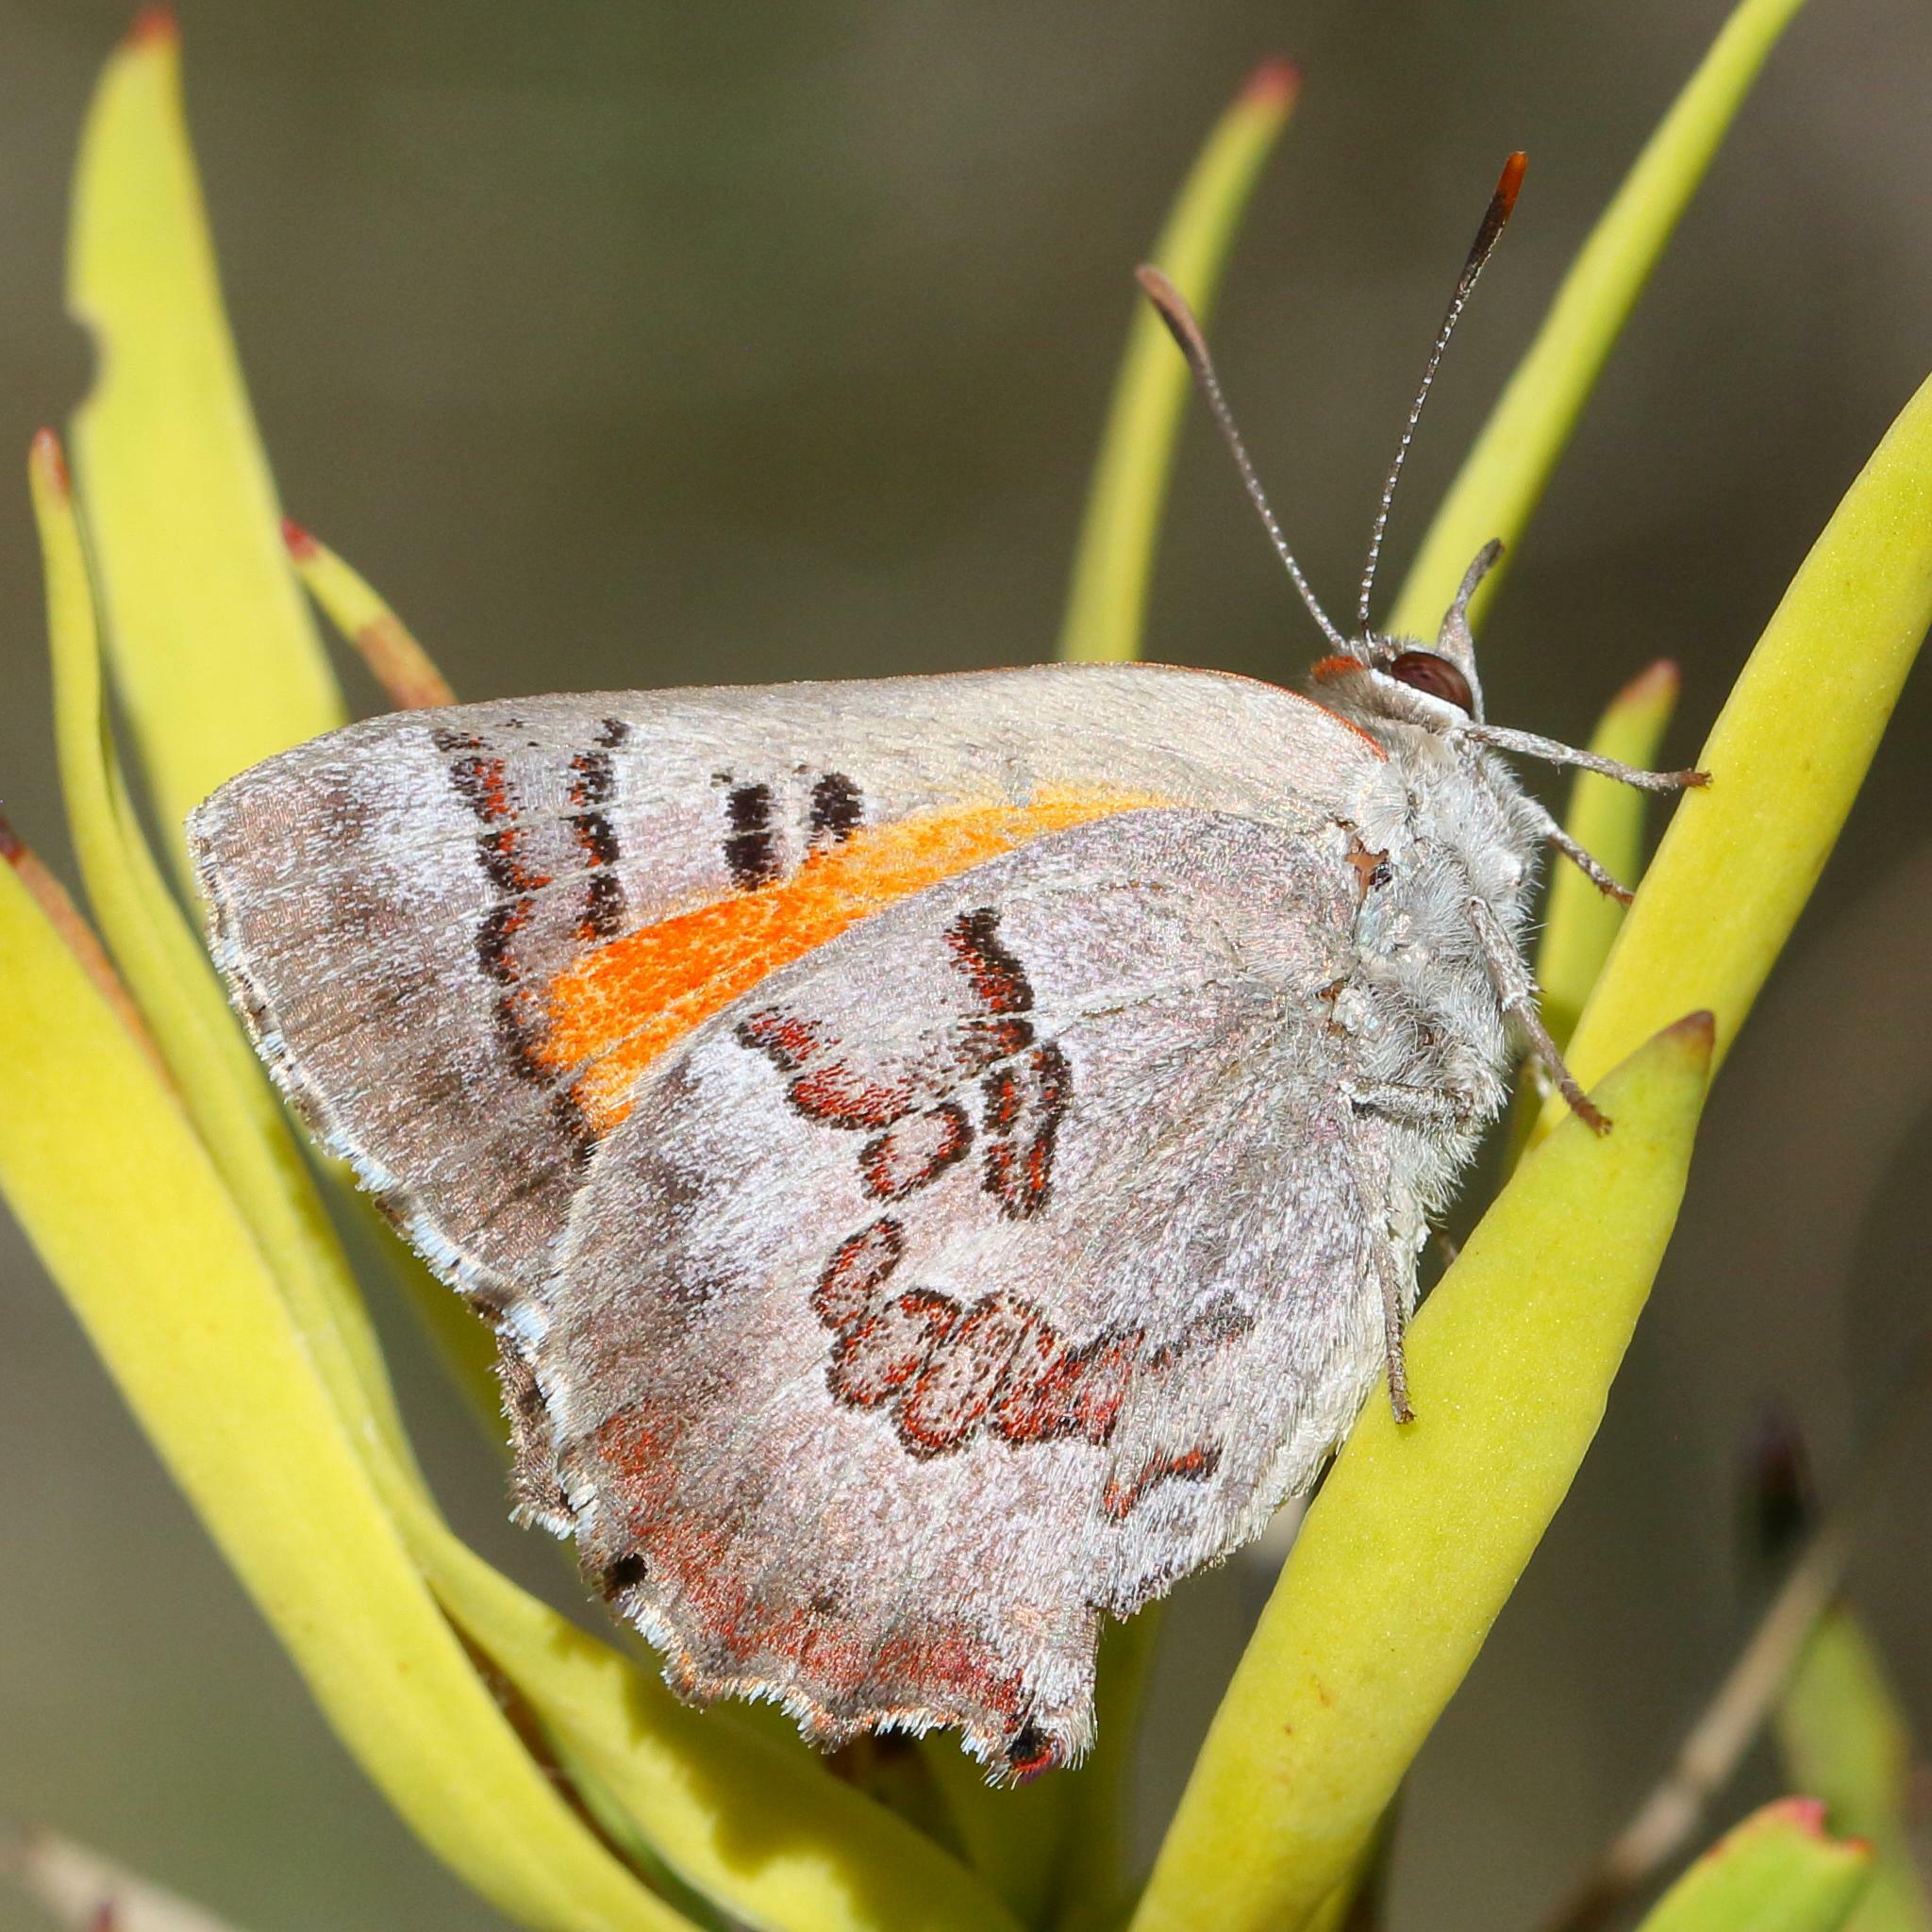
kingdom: Animalia
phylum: Arthropoda
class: Insecta
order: Lepidoptera
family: Lycaenidae
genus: Capys
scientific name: Capys alpheus
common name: Orange-banded protea butterfly
